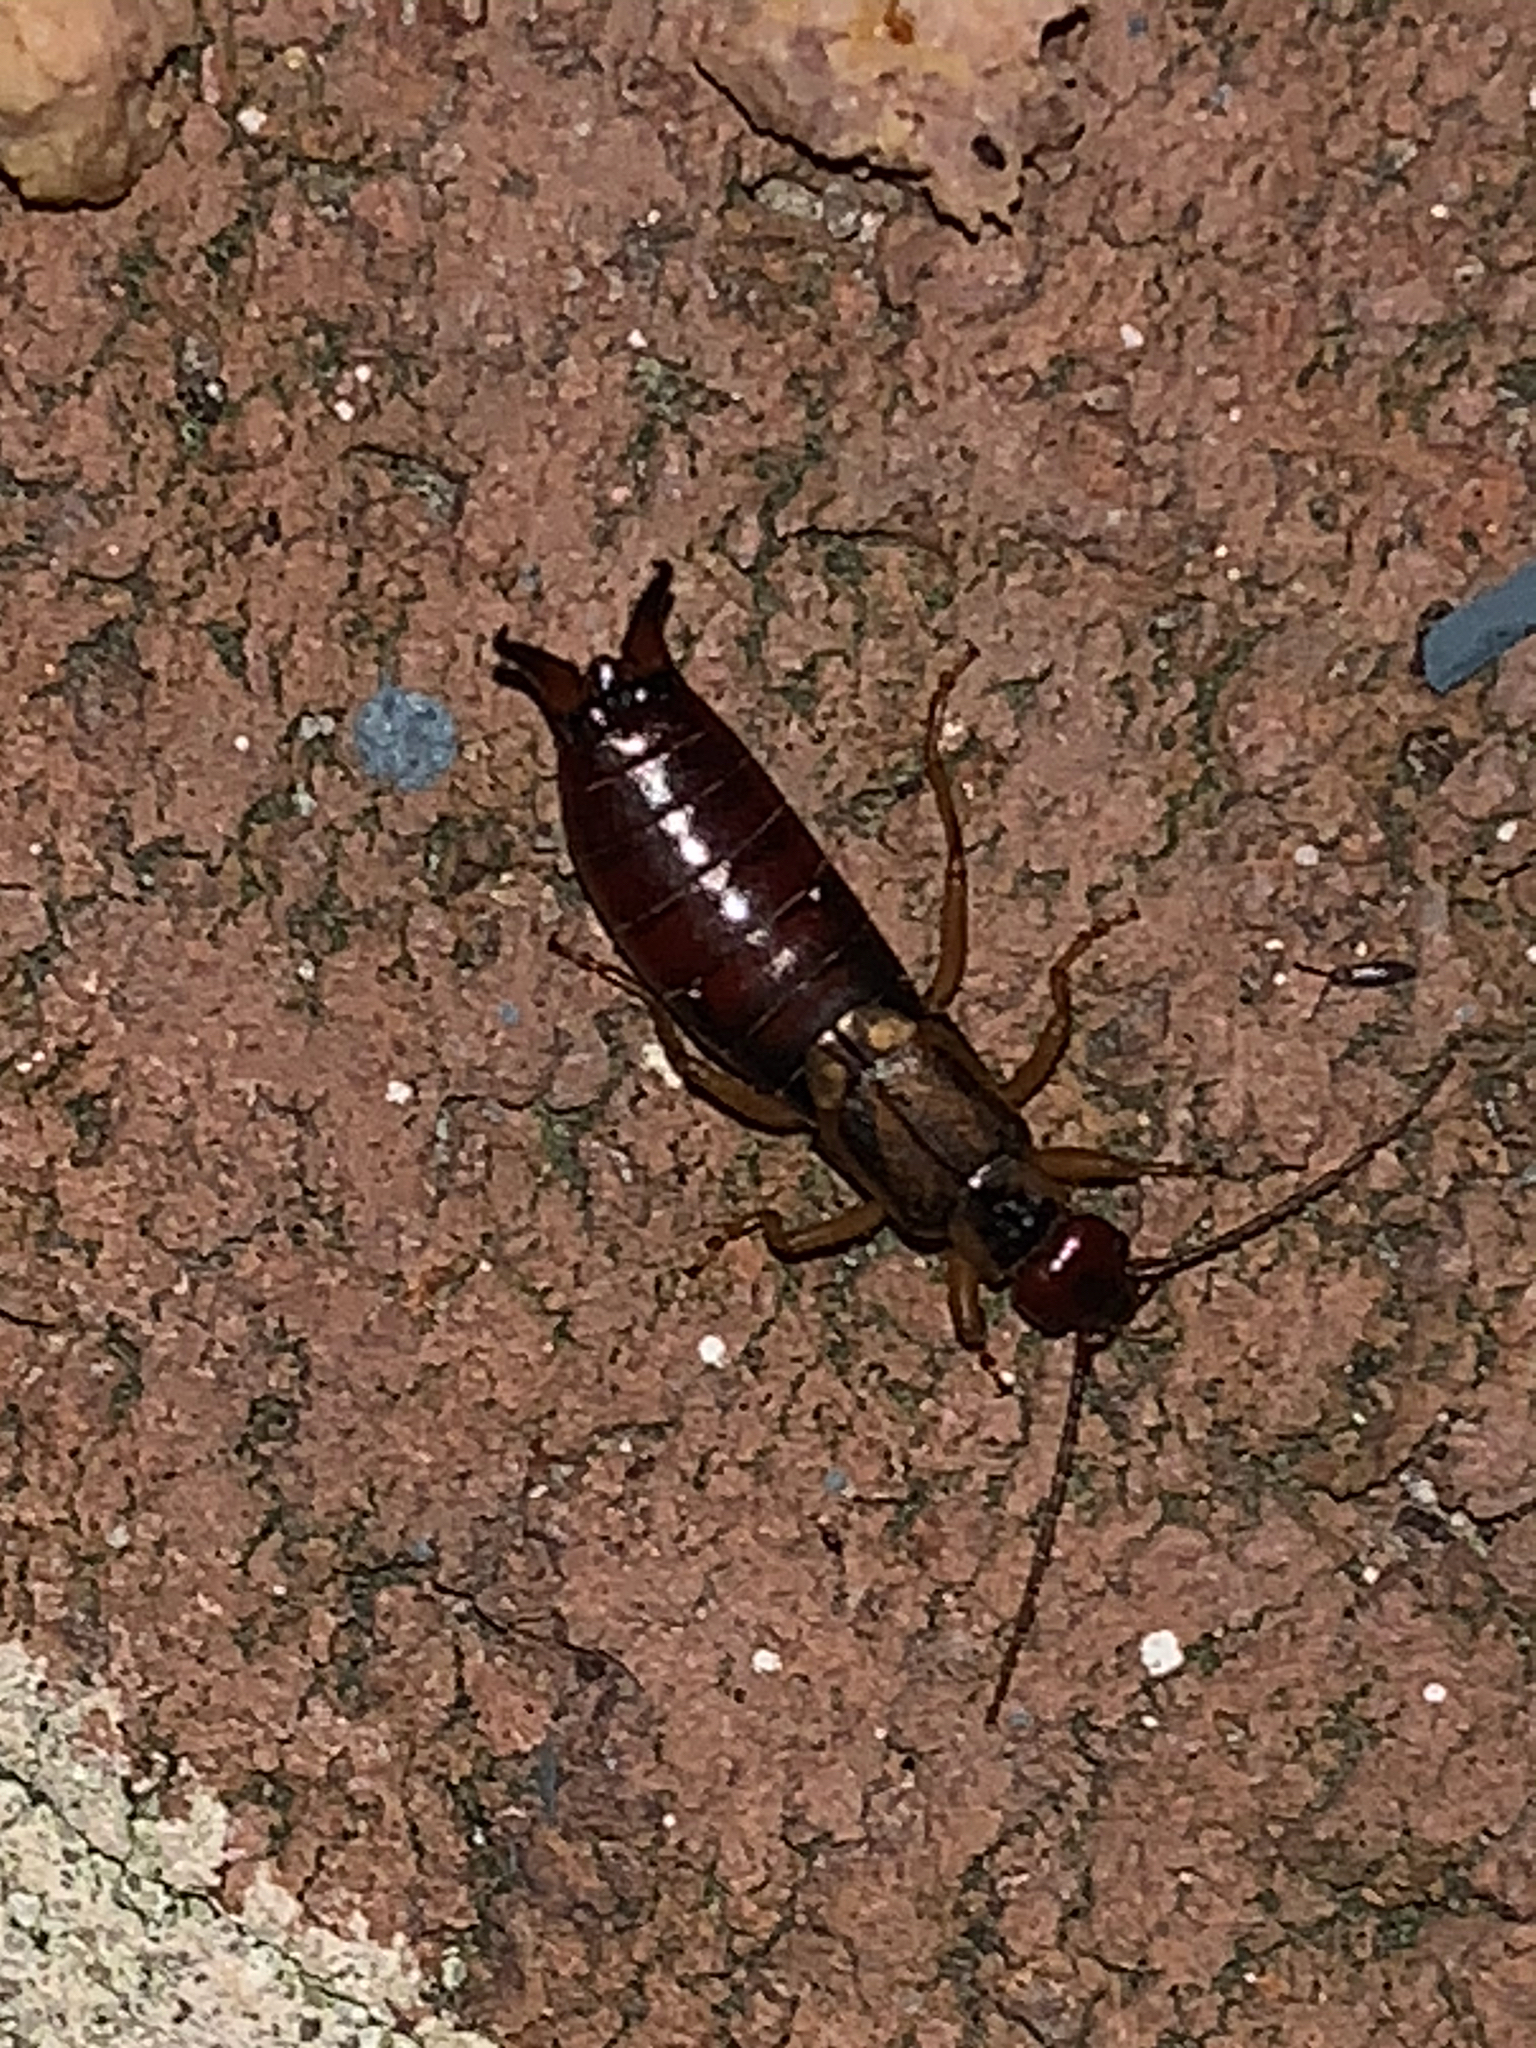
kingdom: Animalia
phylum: Arthropoda
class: Insecta
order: Dermaptera
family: Forficulidae
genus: Forficula
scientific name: Forficula
